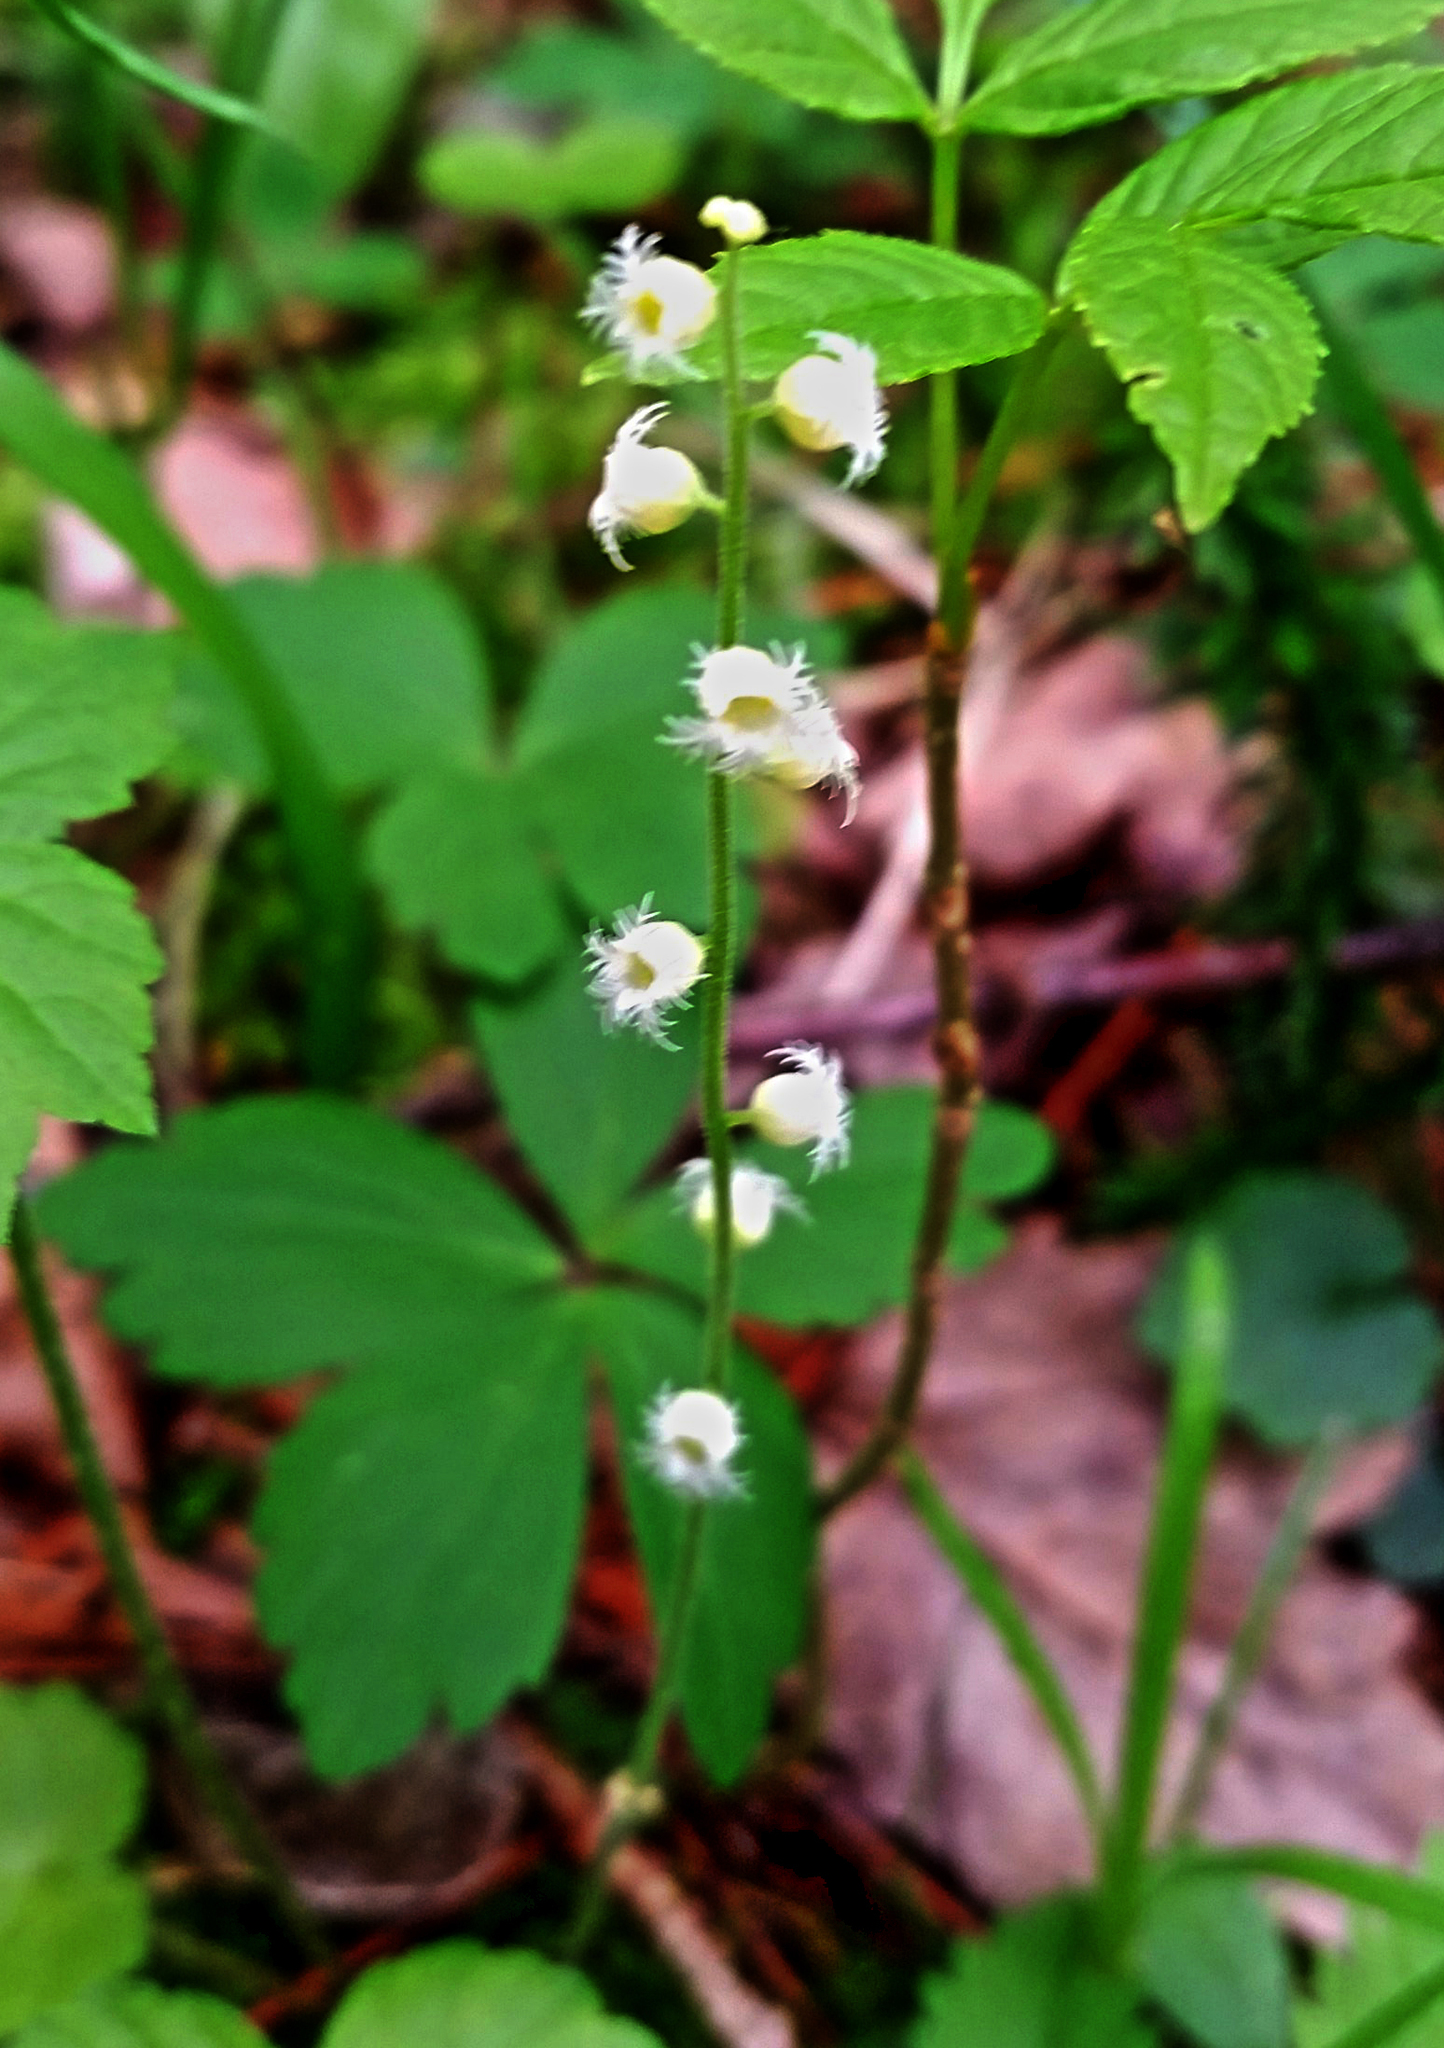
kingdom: Plantae
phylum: Tracheophyta
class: Magnoliopsida
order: Saxifragales
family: Saxifragaceae
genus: Mitella
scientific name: Mitella diphylla
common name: Coolwort
